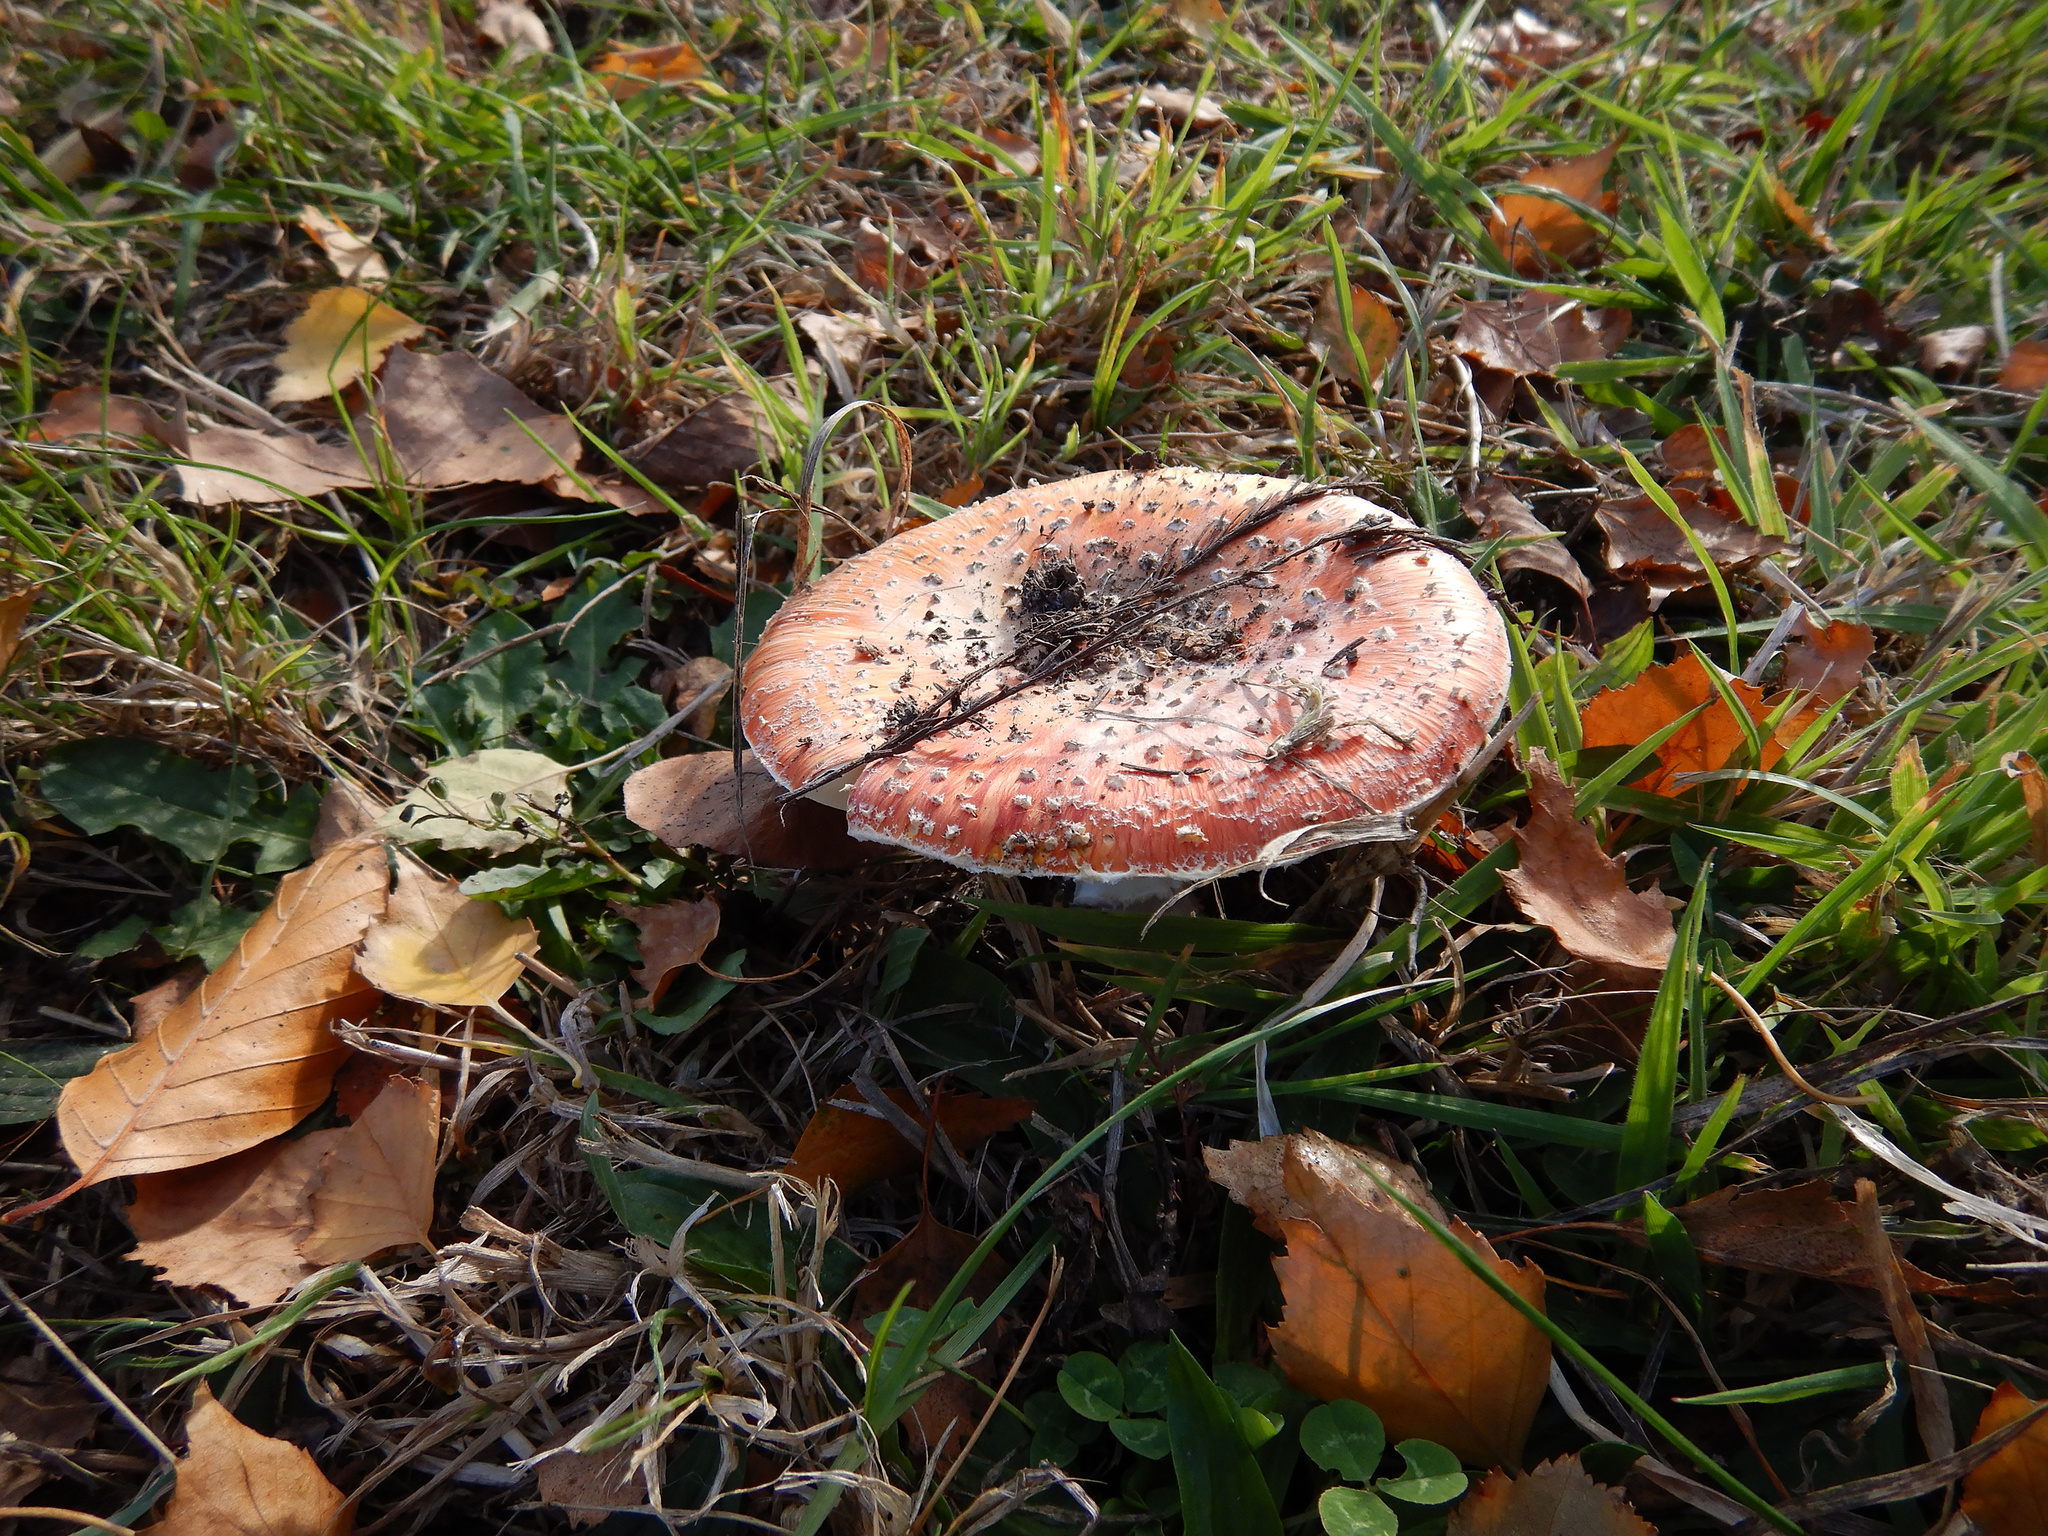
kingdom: Fungi
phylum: Basidiomycota
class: Agaricomycetes
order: Agaricales
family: Amanitaceae
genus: Amanita
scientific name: Amanita muscaria
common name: Fly agaric
